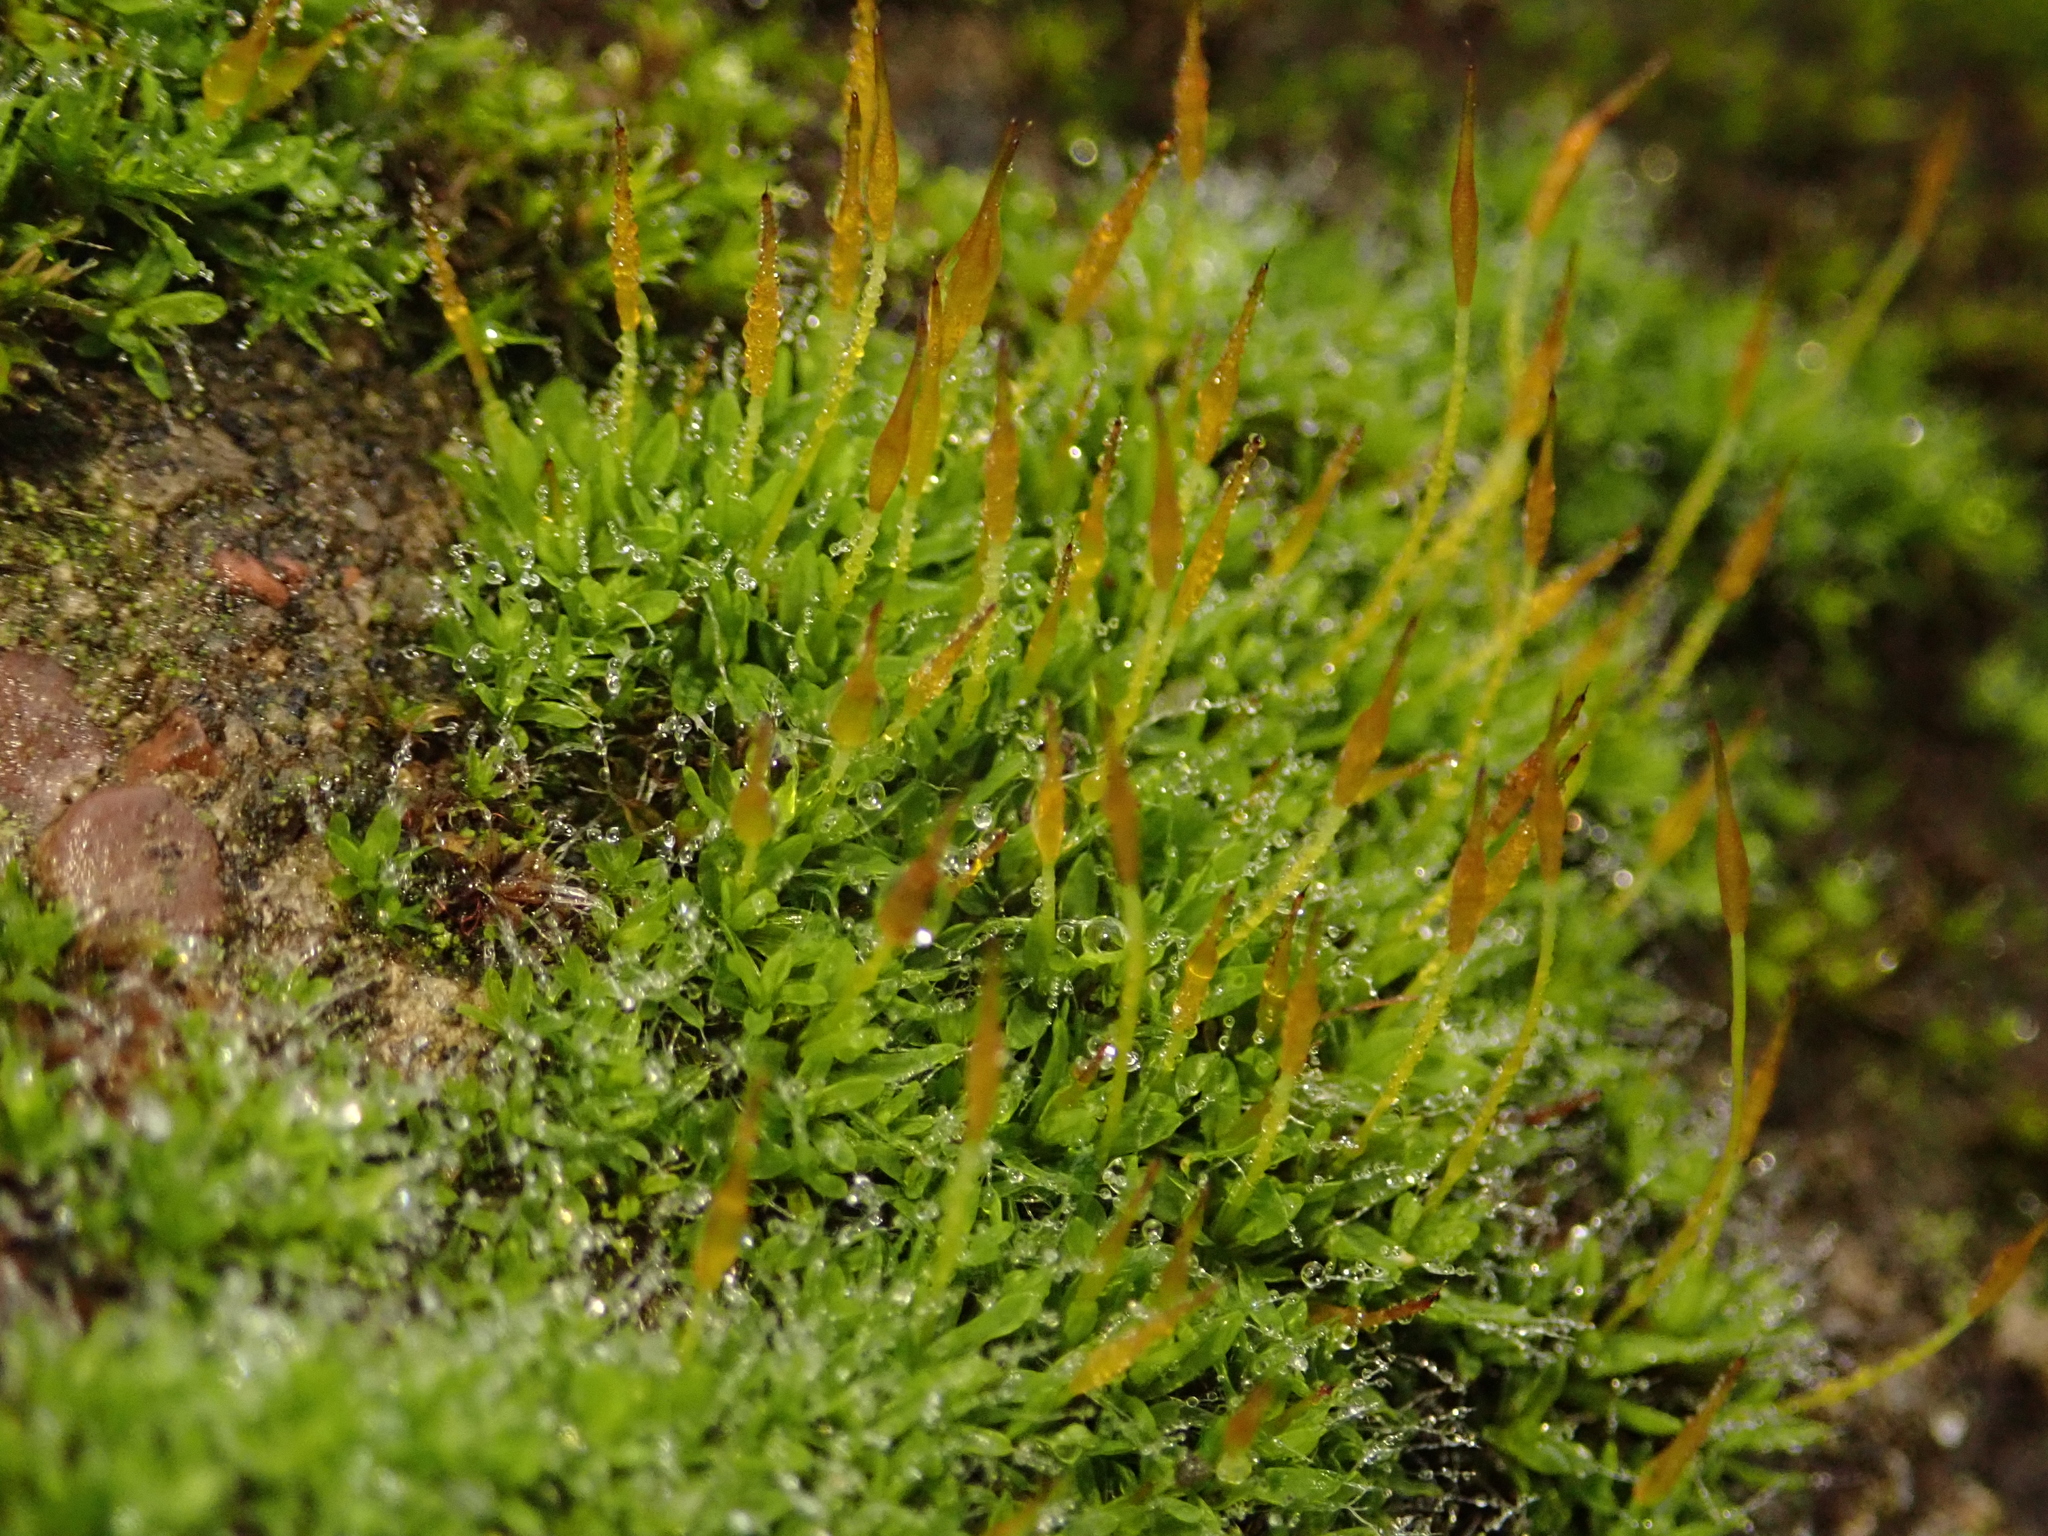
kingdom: Plantae
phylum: Bryophyta
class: Bryopsida
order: Pottiales
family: Pottiaceae
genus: Tortula
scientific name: Tortula muralis
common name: Wall screw-moss
